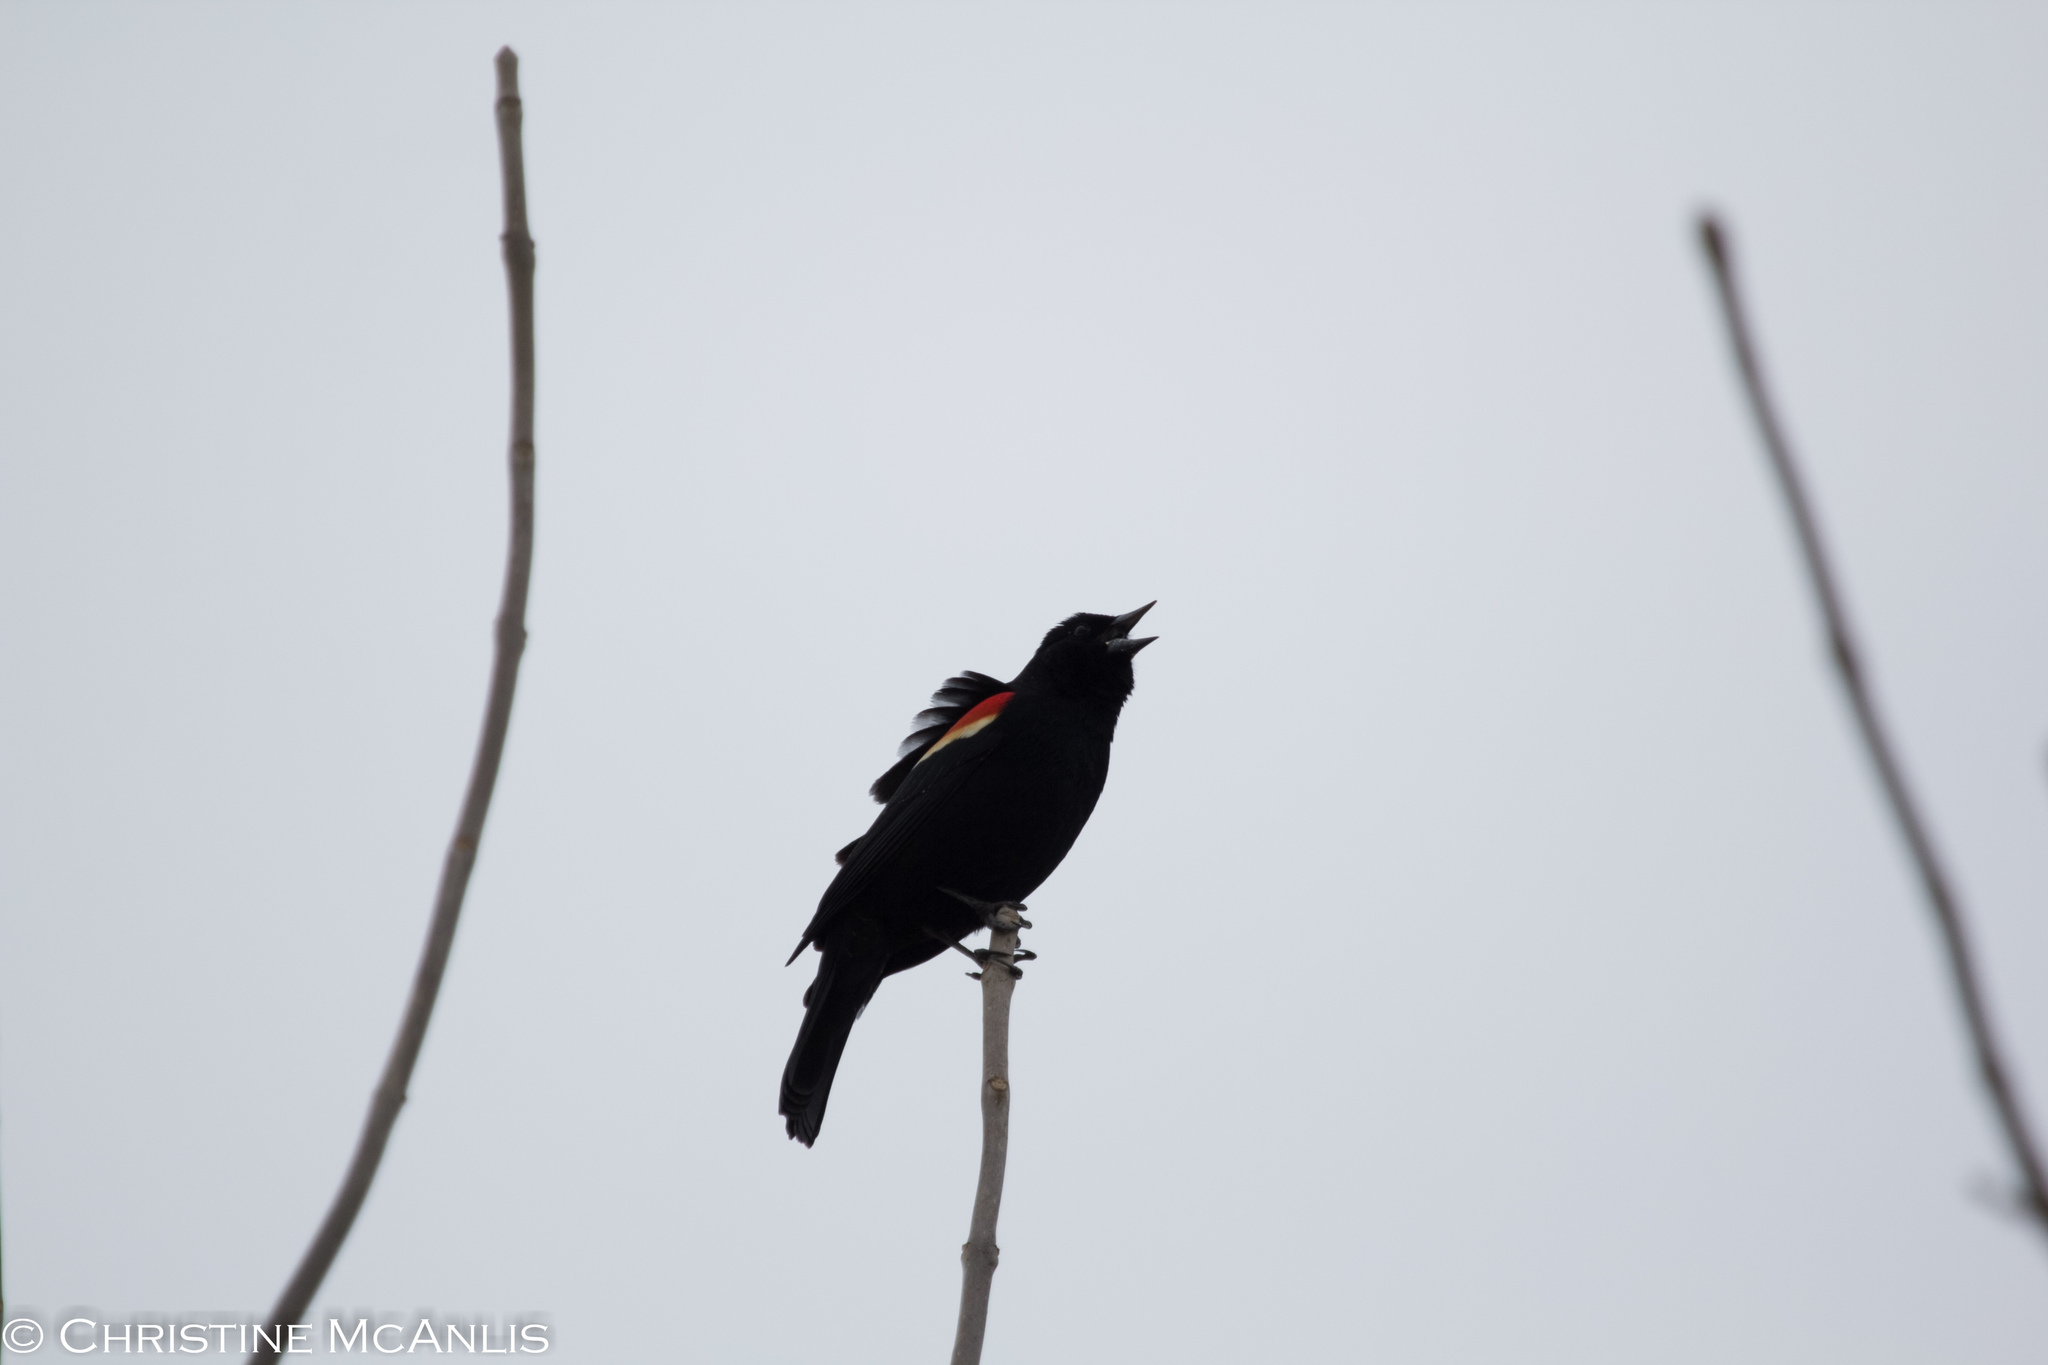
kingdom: Animalia
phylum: Chordata
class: Aves
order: Passeriformes
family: Icteridae
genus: Agelaius
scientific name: Agelaius phoeniceus
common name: Red-winged blackbird
